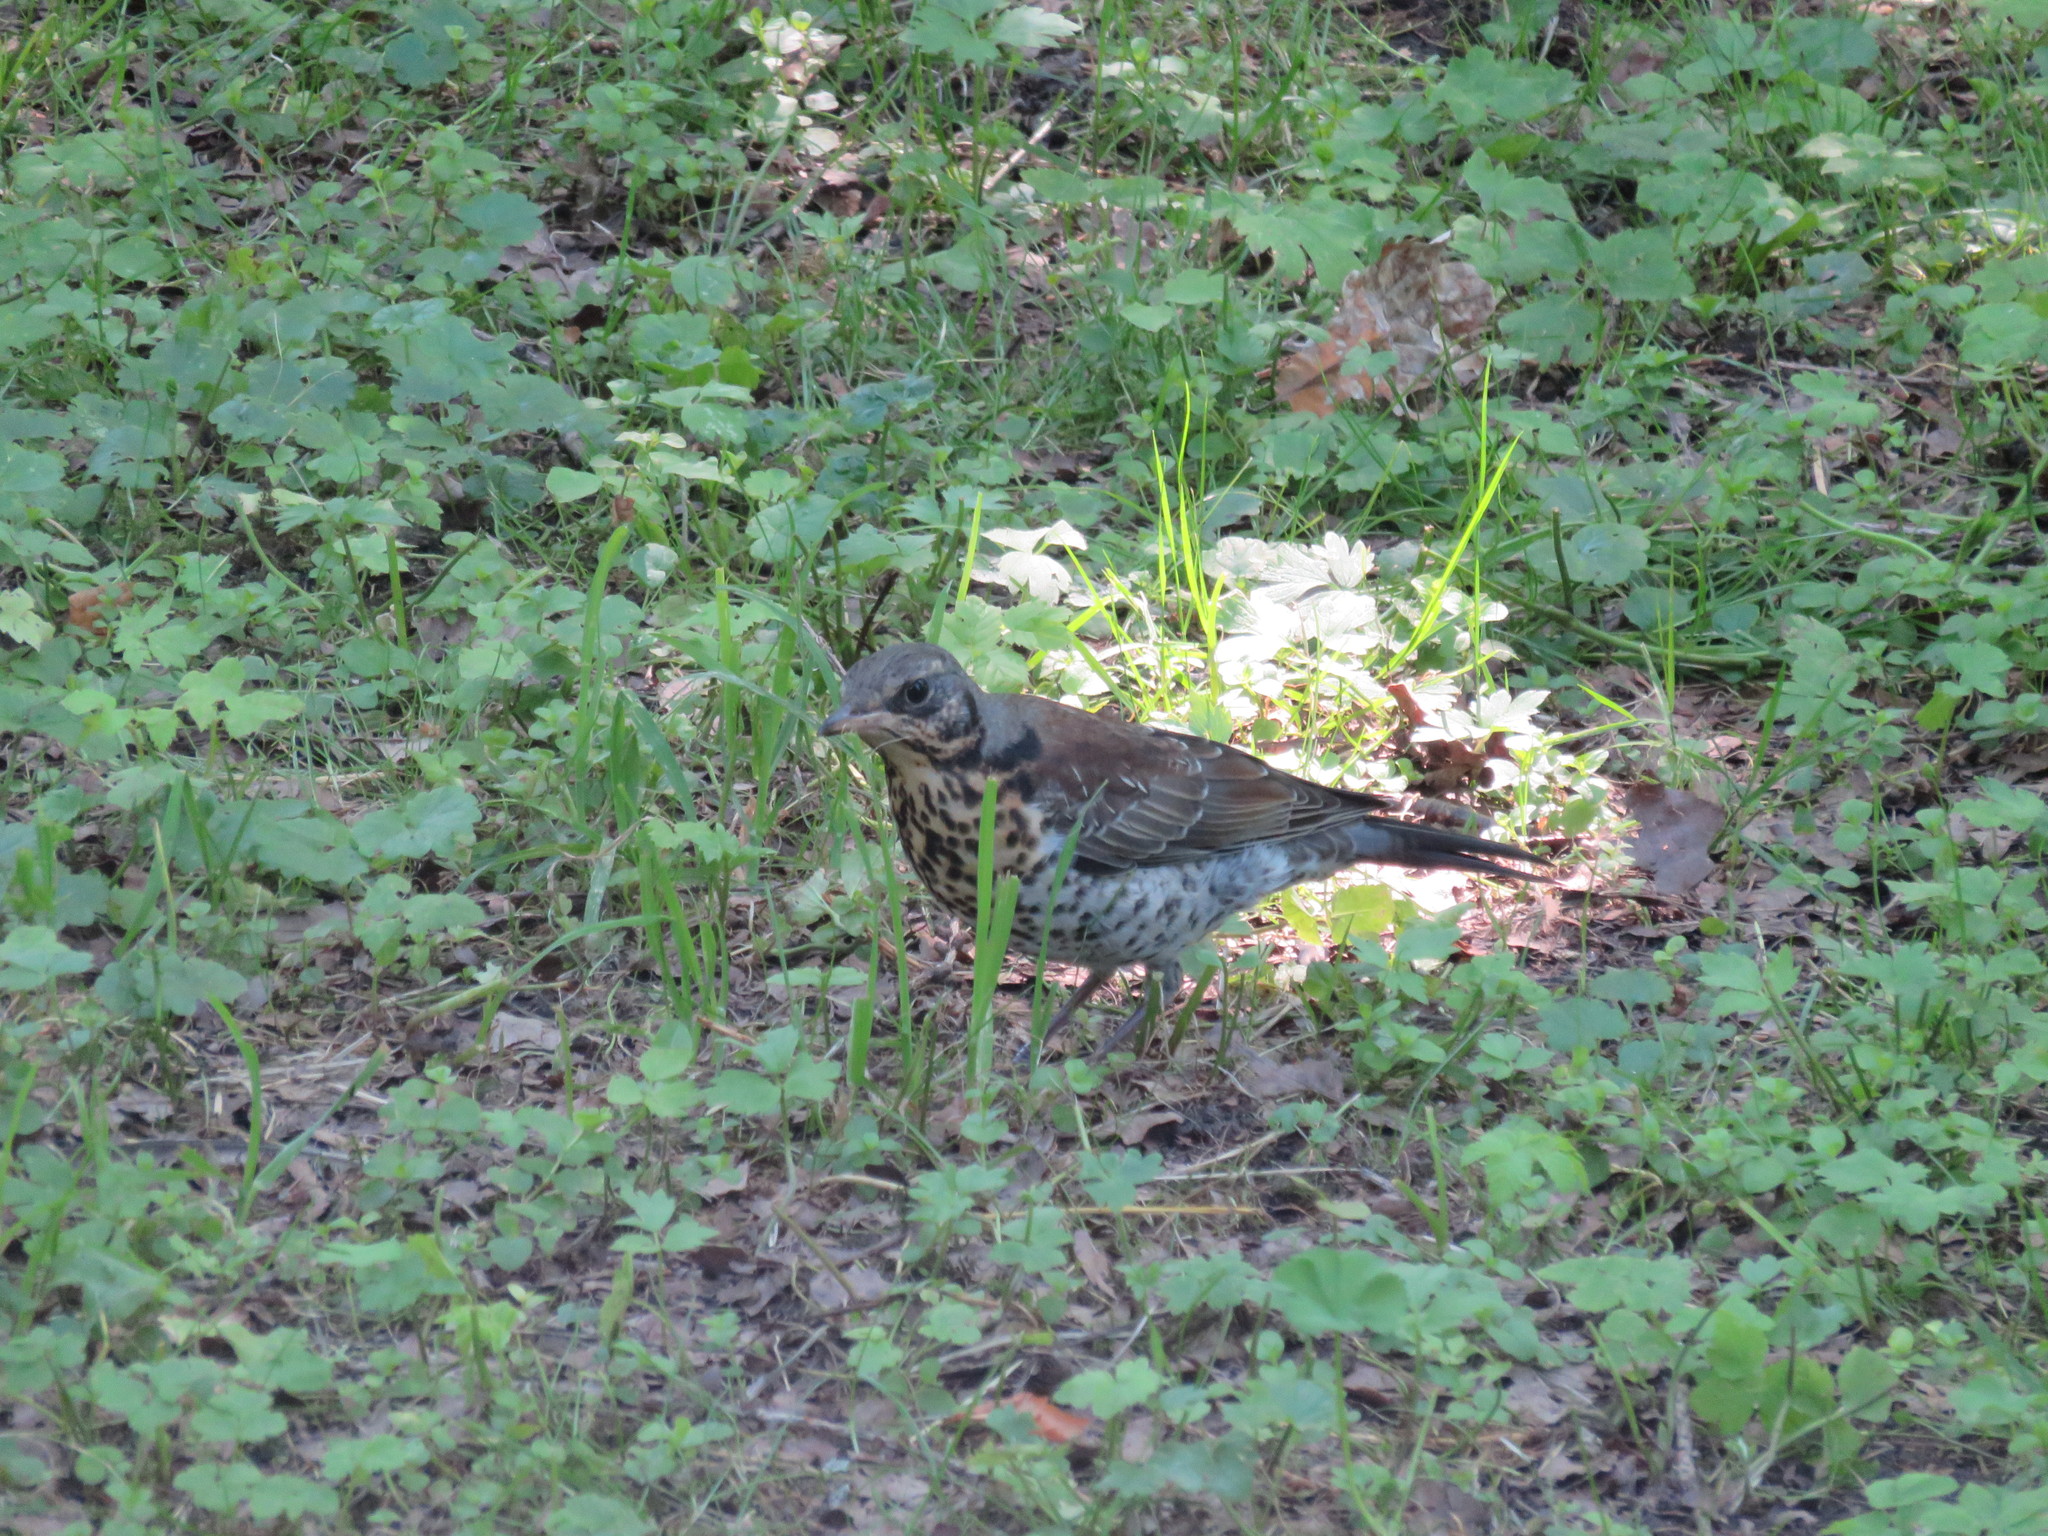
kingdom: Animalia
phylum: Chordata
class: Aves
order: Passeriformes
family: Turdidae
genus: Turdus
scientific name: Turdus pilaris
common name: Fieldfare
